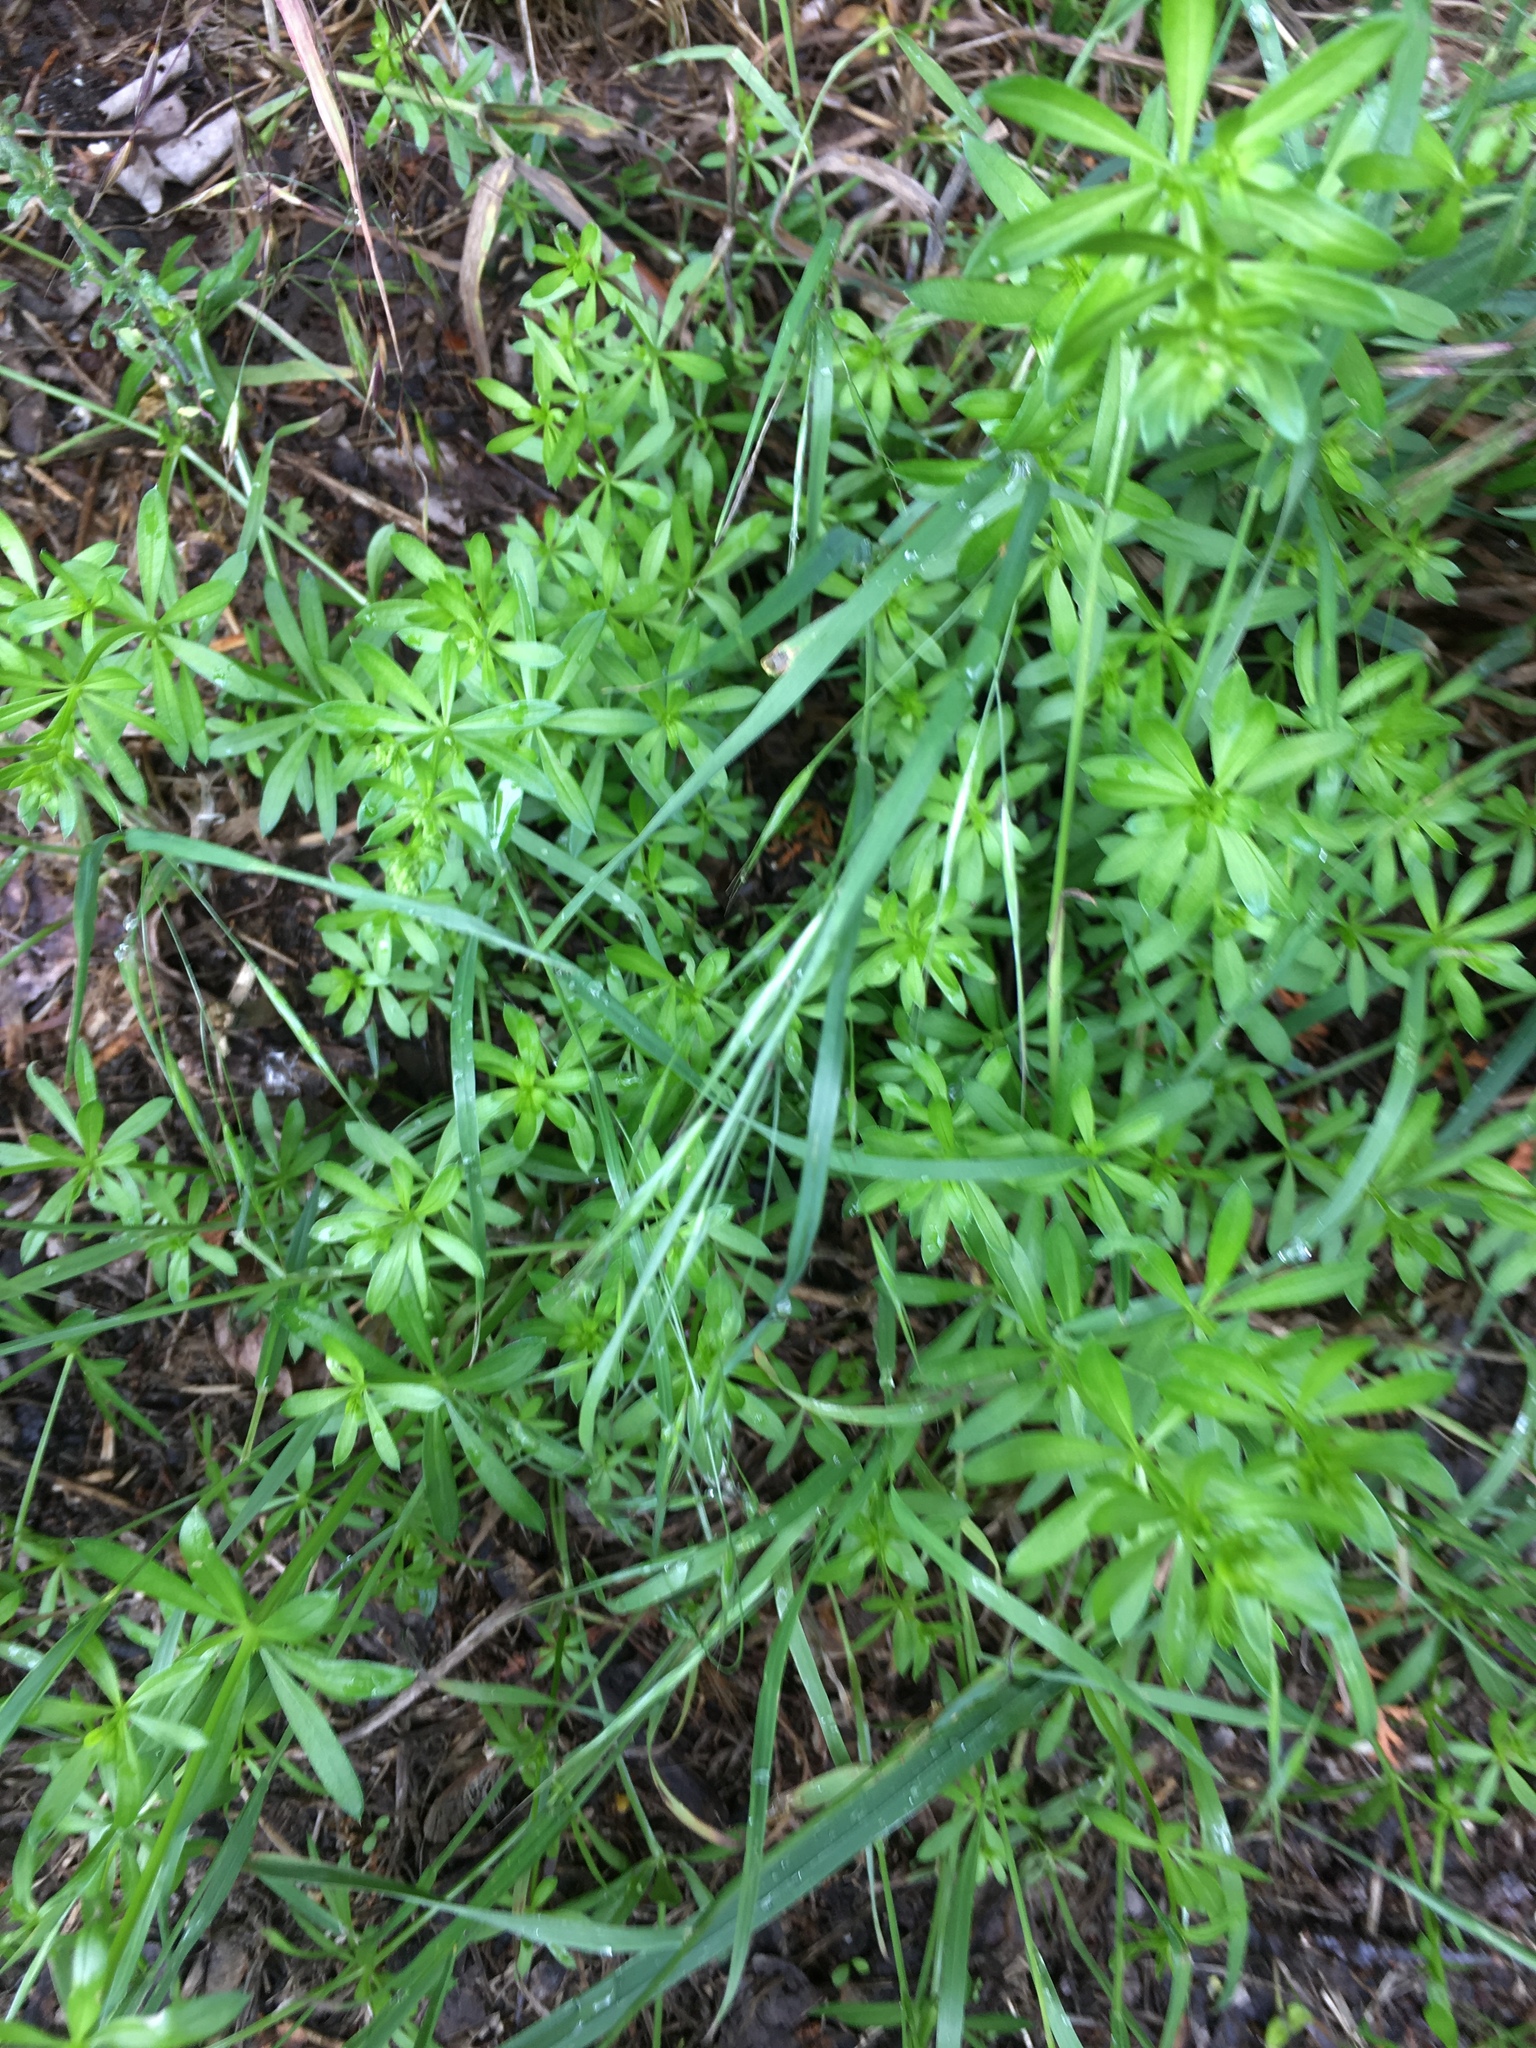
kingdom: Plantae
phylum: Tracheophyta
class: Magnoliopsida
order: Gentianales
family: Rubiaceae
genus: Galium
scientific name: Galium mollugo
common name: Hedge bedstraw
